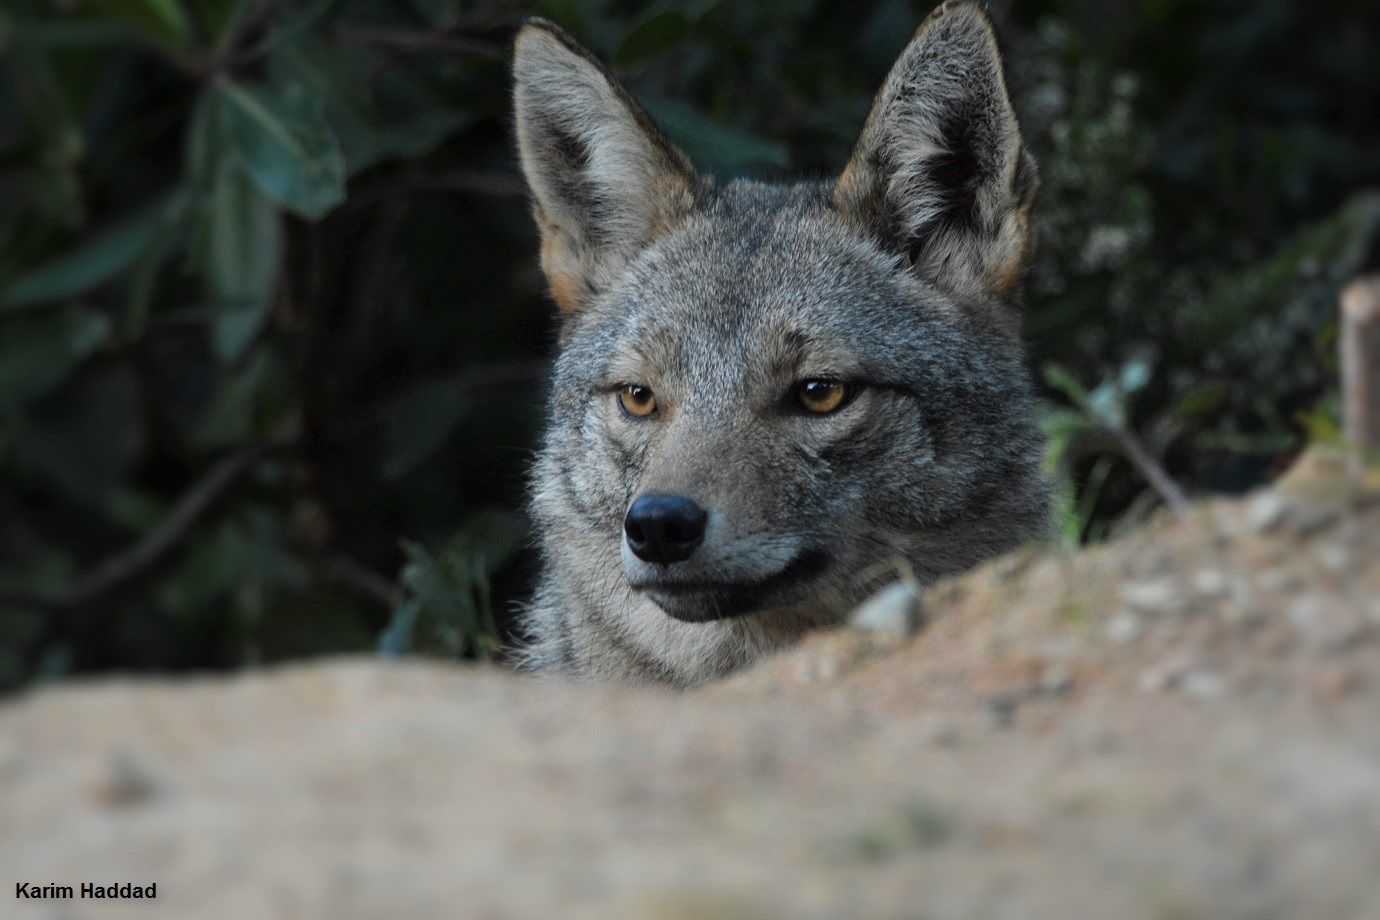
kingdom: Animalia
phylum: Chordata
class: Mammalia
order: Carnivora
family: Canidae
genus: Canis
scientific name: Canis lupaster
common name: African golden wolf
